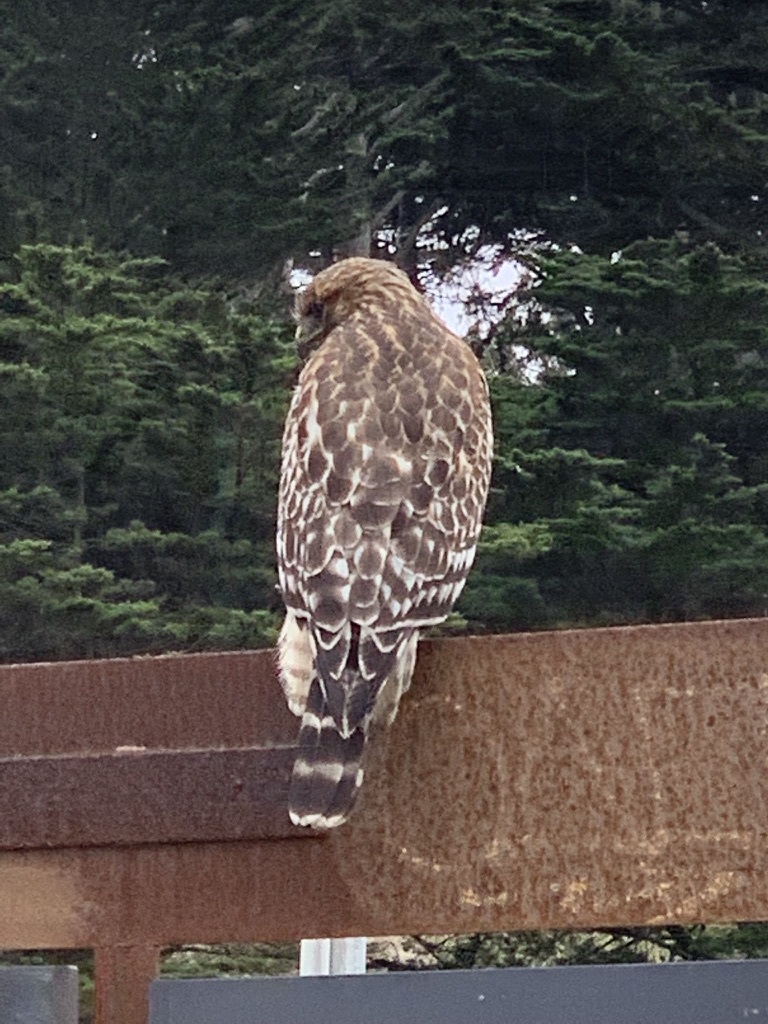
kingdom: Animalia
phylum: Chordata
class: Aves
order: Accipitriformes
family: Accipitridae
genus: Buteo
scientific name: Buteo lineatus
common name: Red-shouldered hawk
